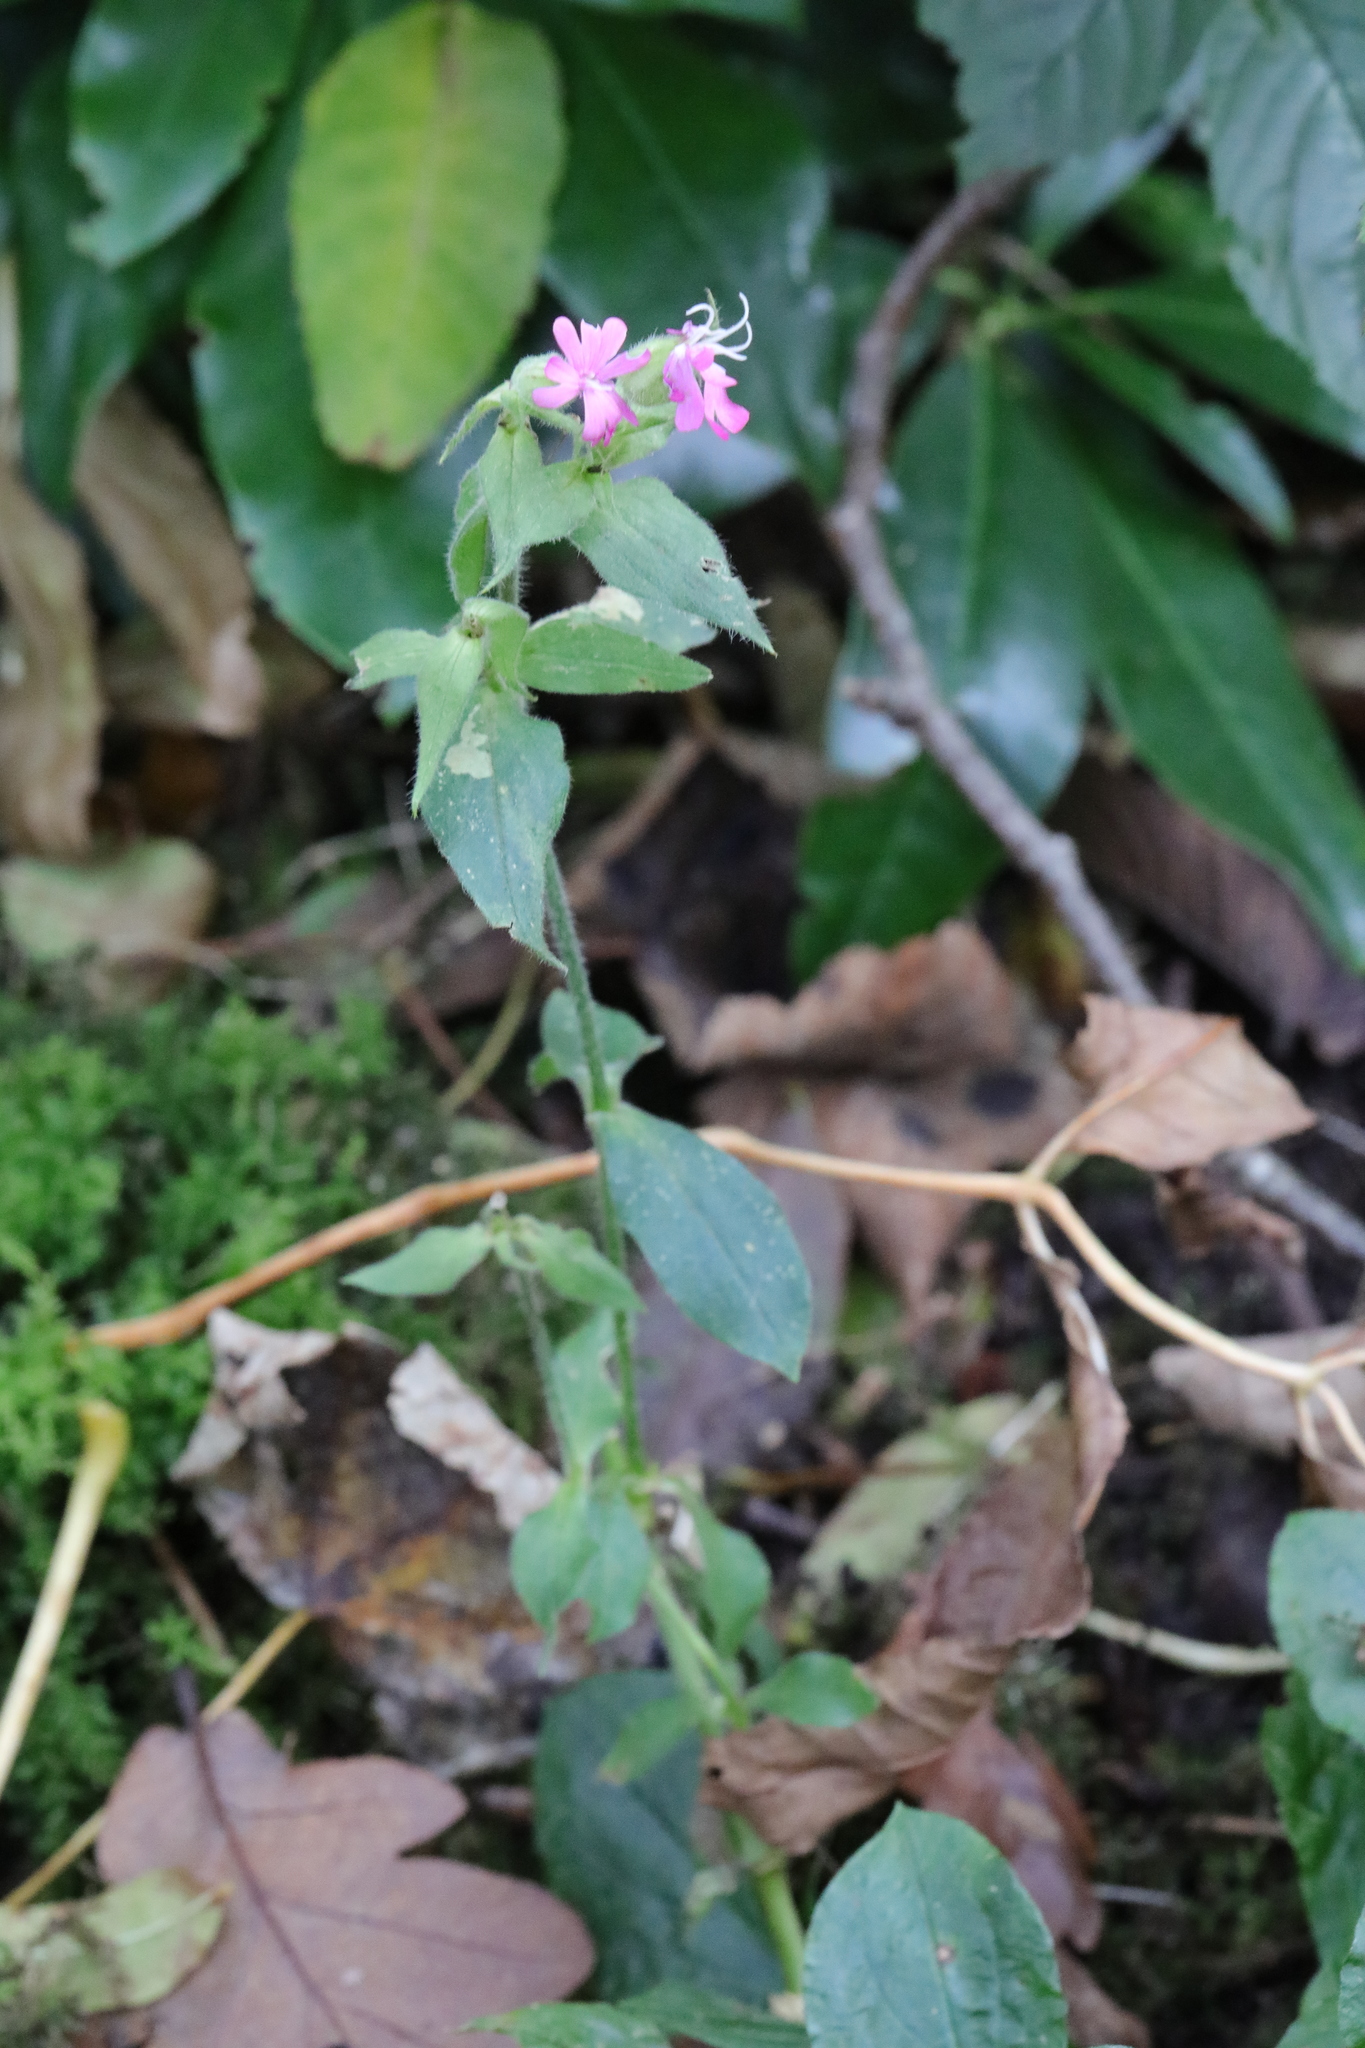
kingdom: Plantae
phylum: Tracheophyta
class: Magnoliopsida
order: Caryophyllales
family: Caryophyllaceae
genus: Silene
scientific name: Silene dioica
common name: Red campion
